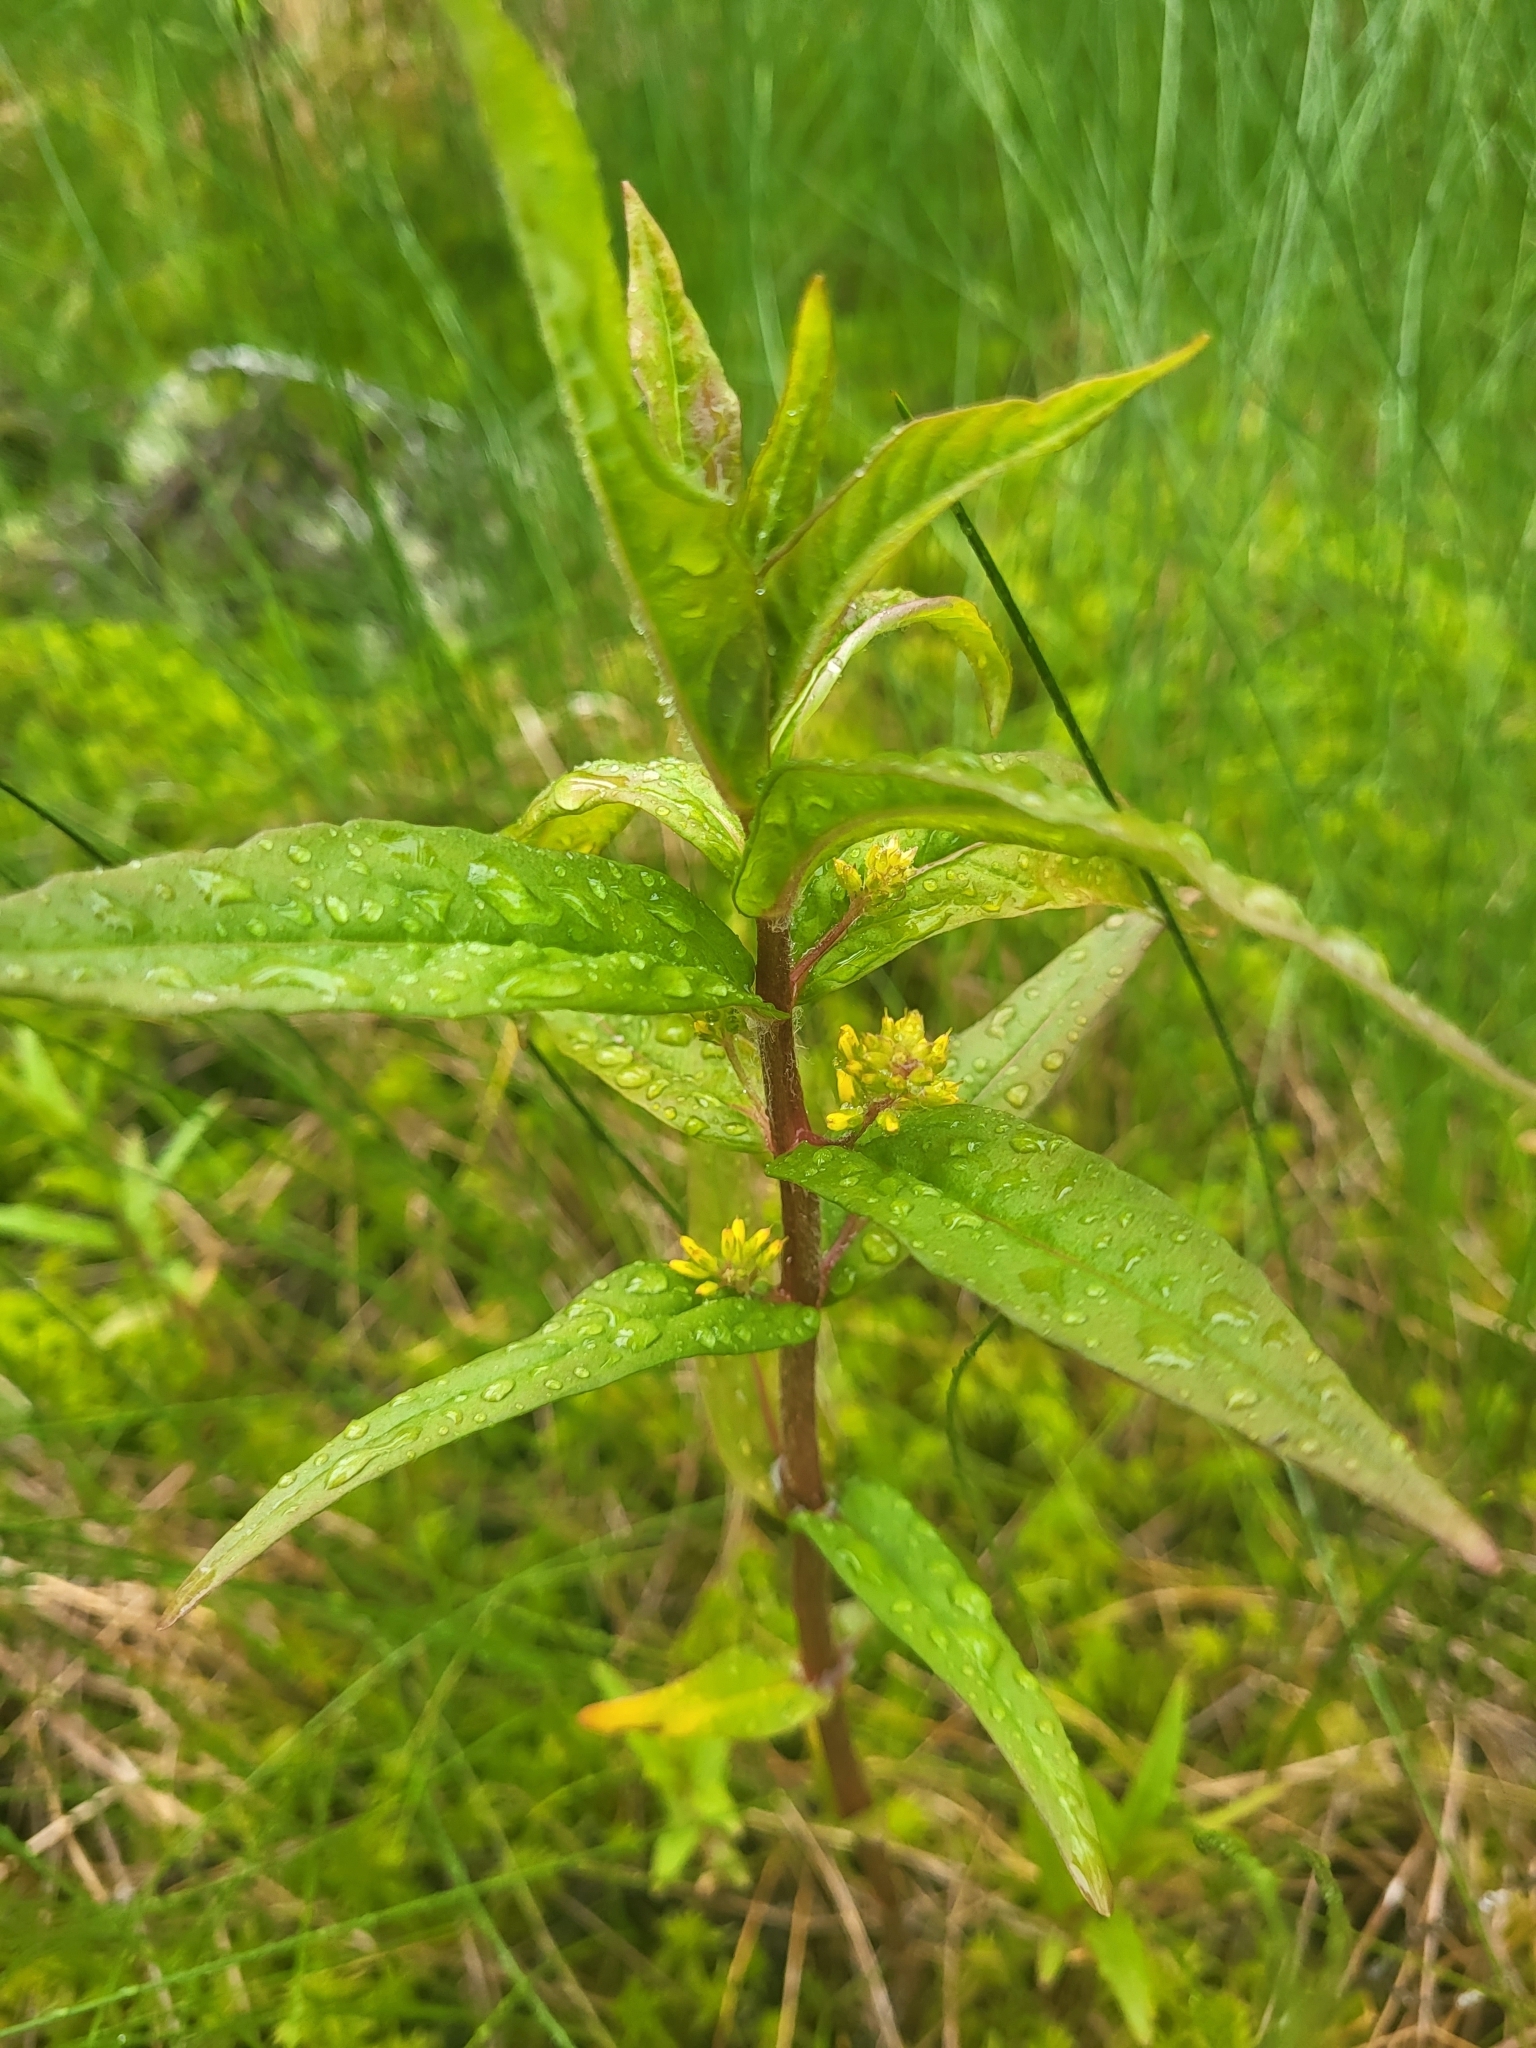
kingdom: Plantae
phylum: Tracheophyta
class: Magnoliopsida
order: Ericales
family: Primulaceae
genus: Lysimachia
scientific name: Lysimachia thyrsiflora
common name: Tufted loosestrife
